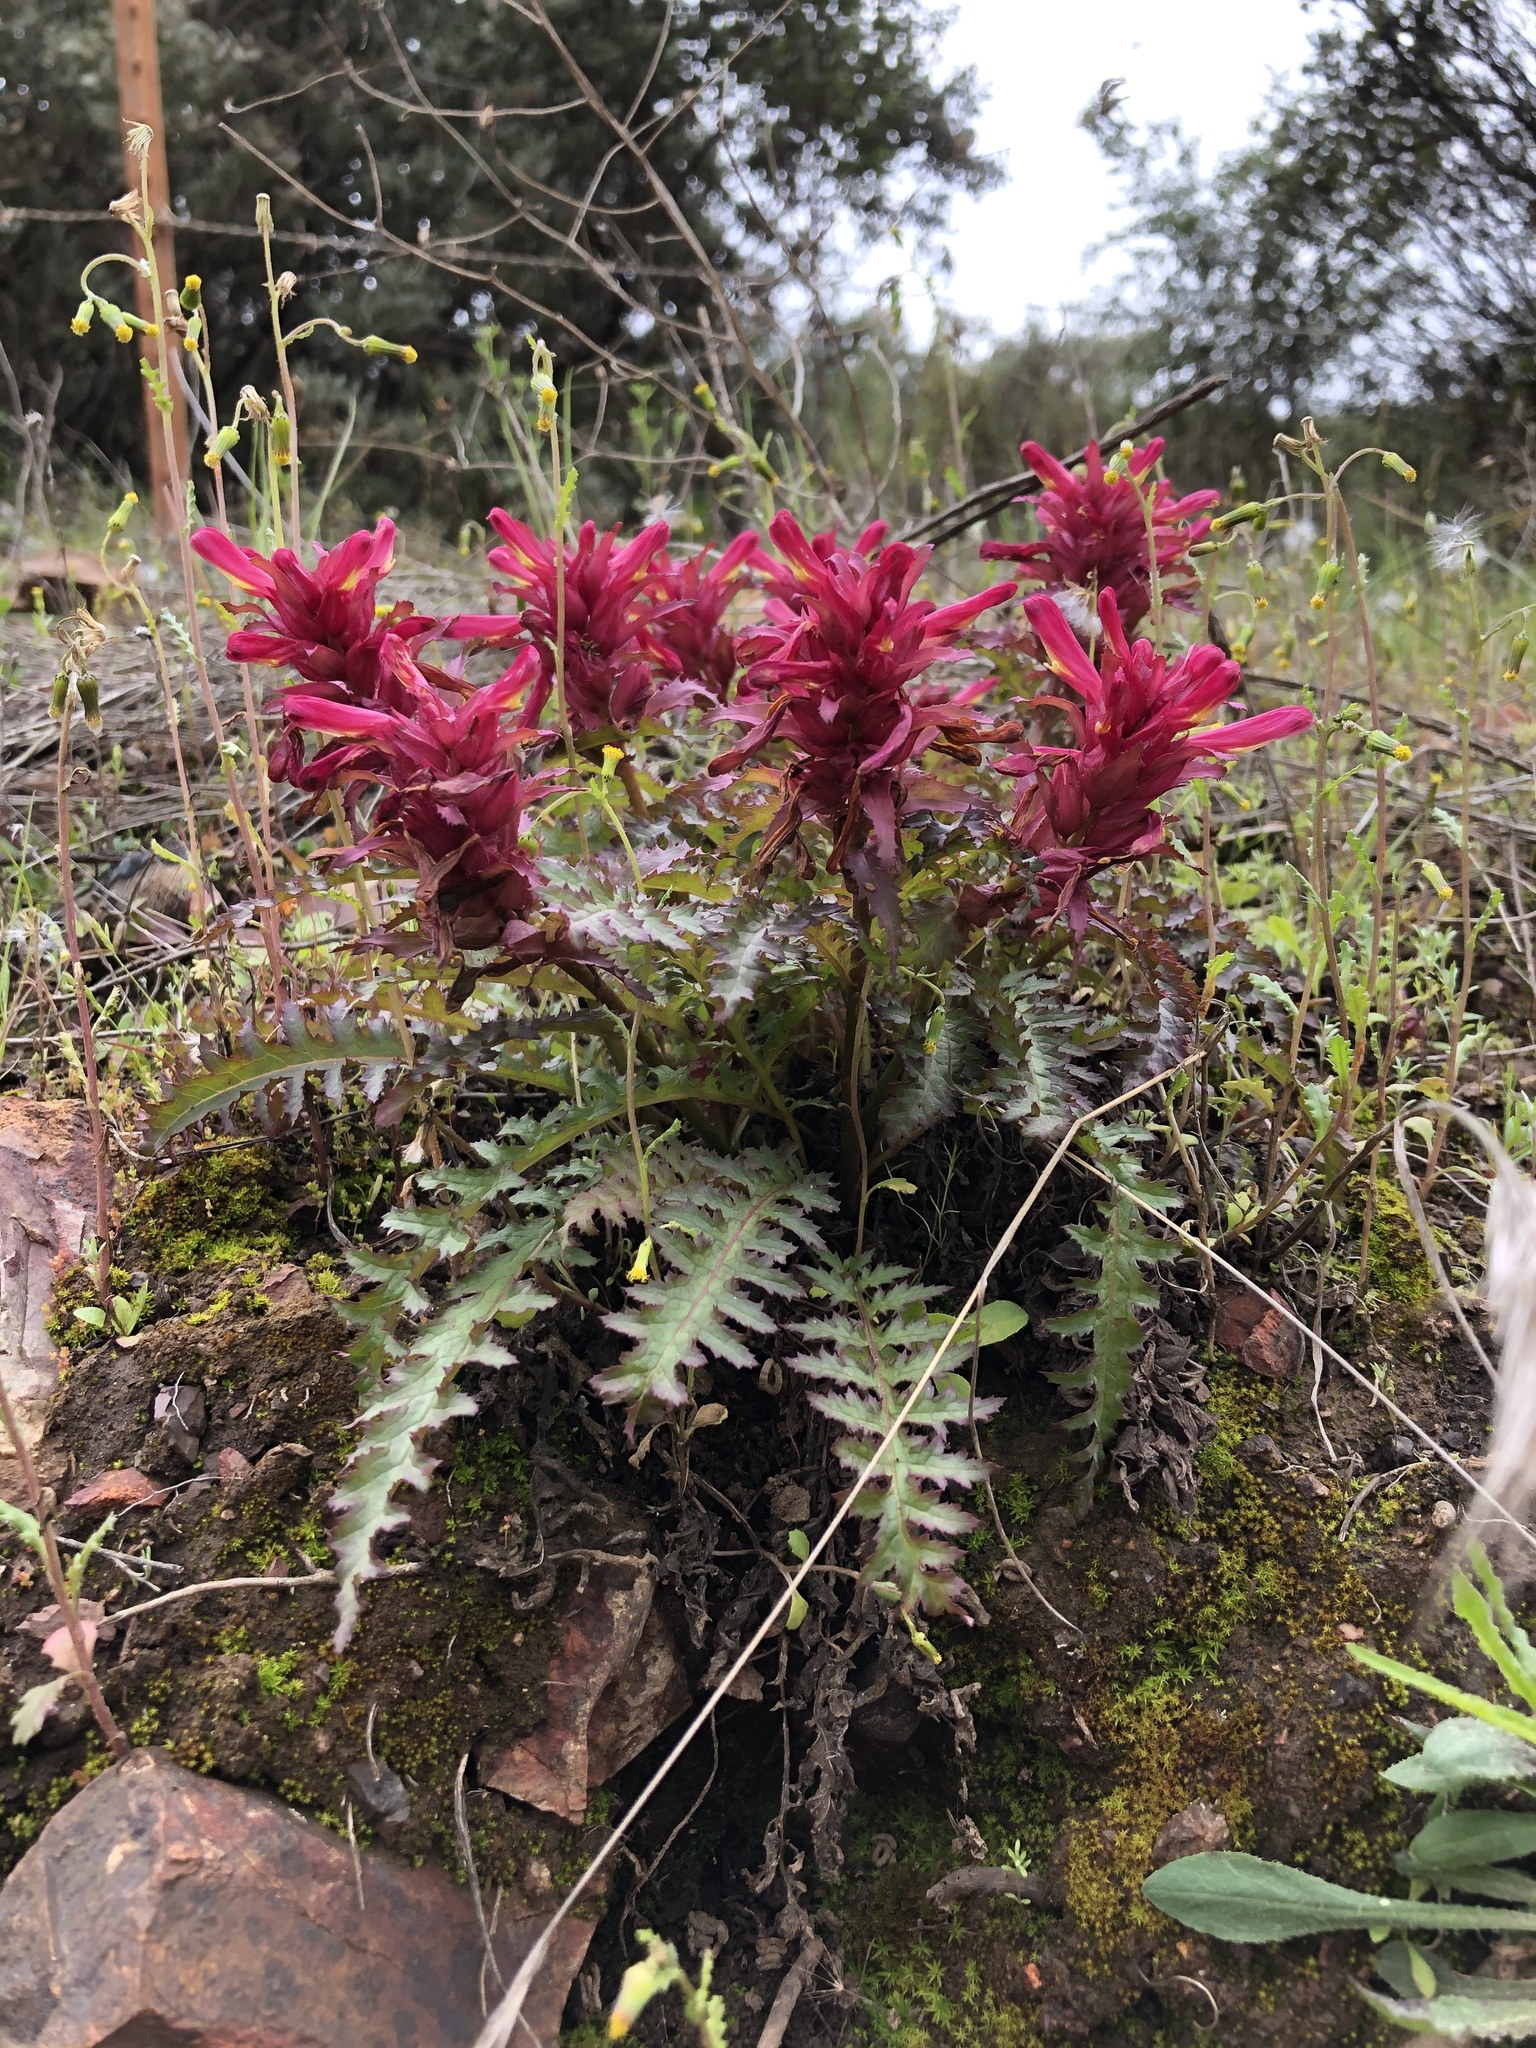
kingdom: Plantae
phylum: Tracheophyta
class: Magnoliopsida
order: Lamiales
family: Orobanchaceae
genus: Pedicularis
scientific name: Pedicularis densiflora
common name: Indian warrior
